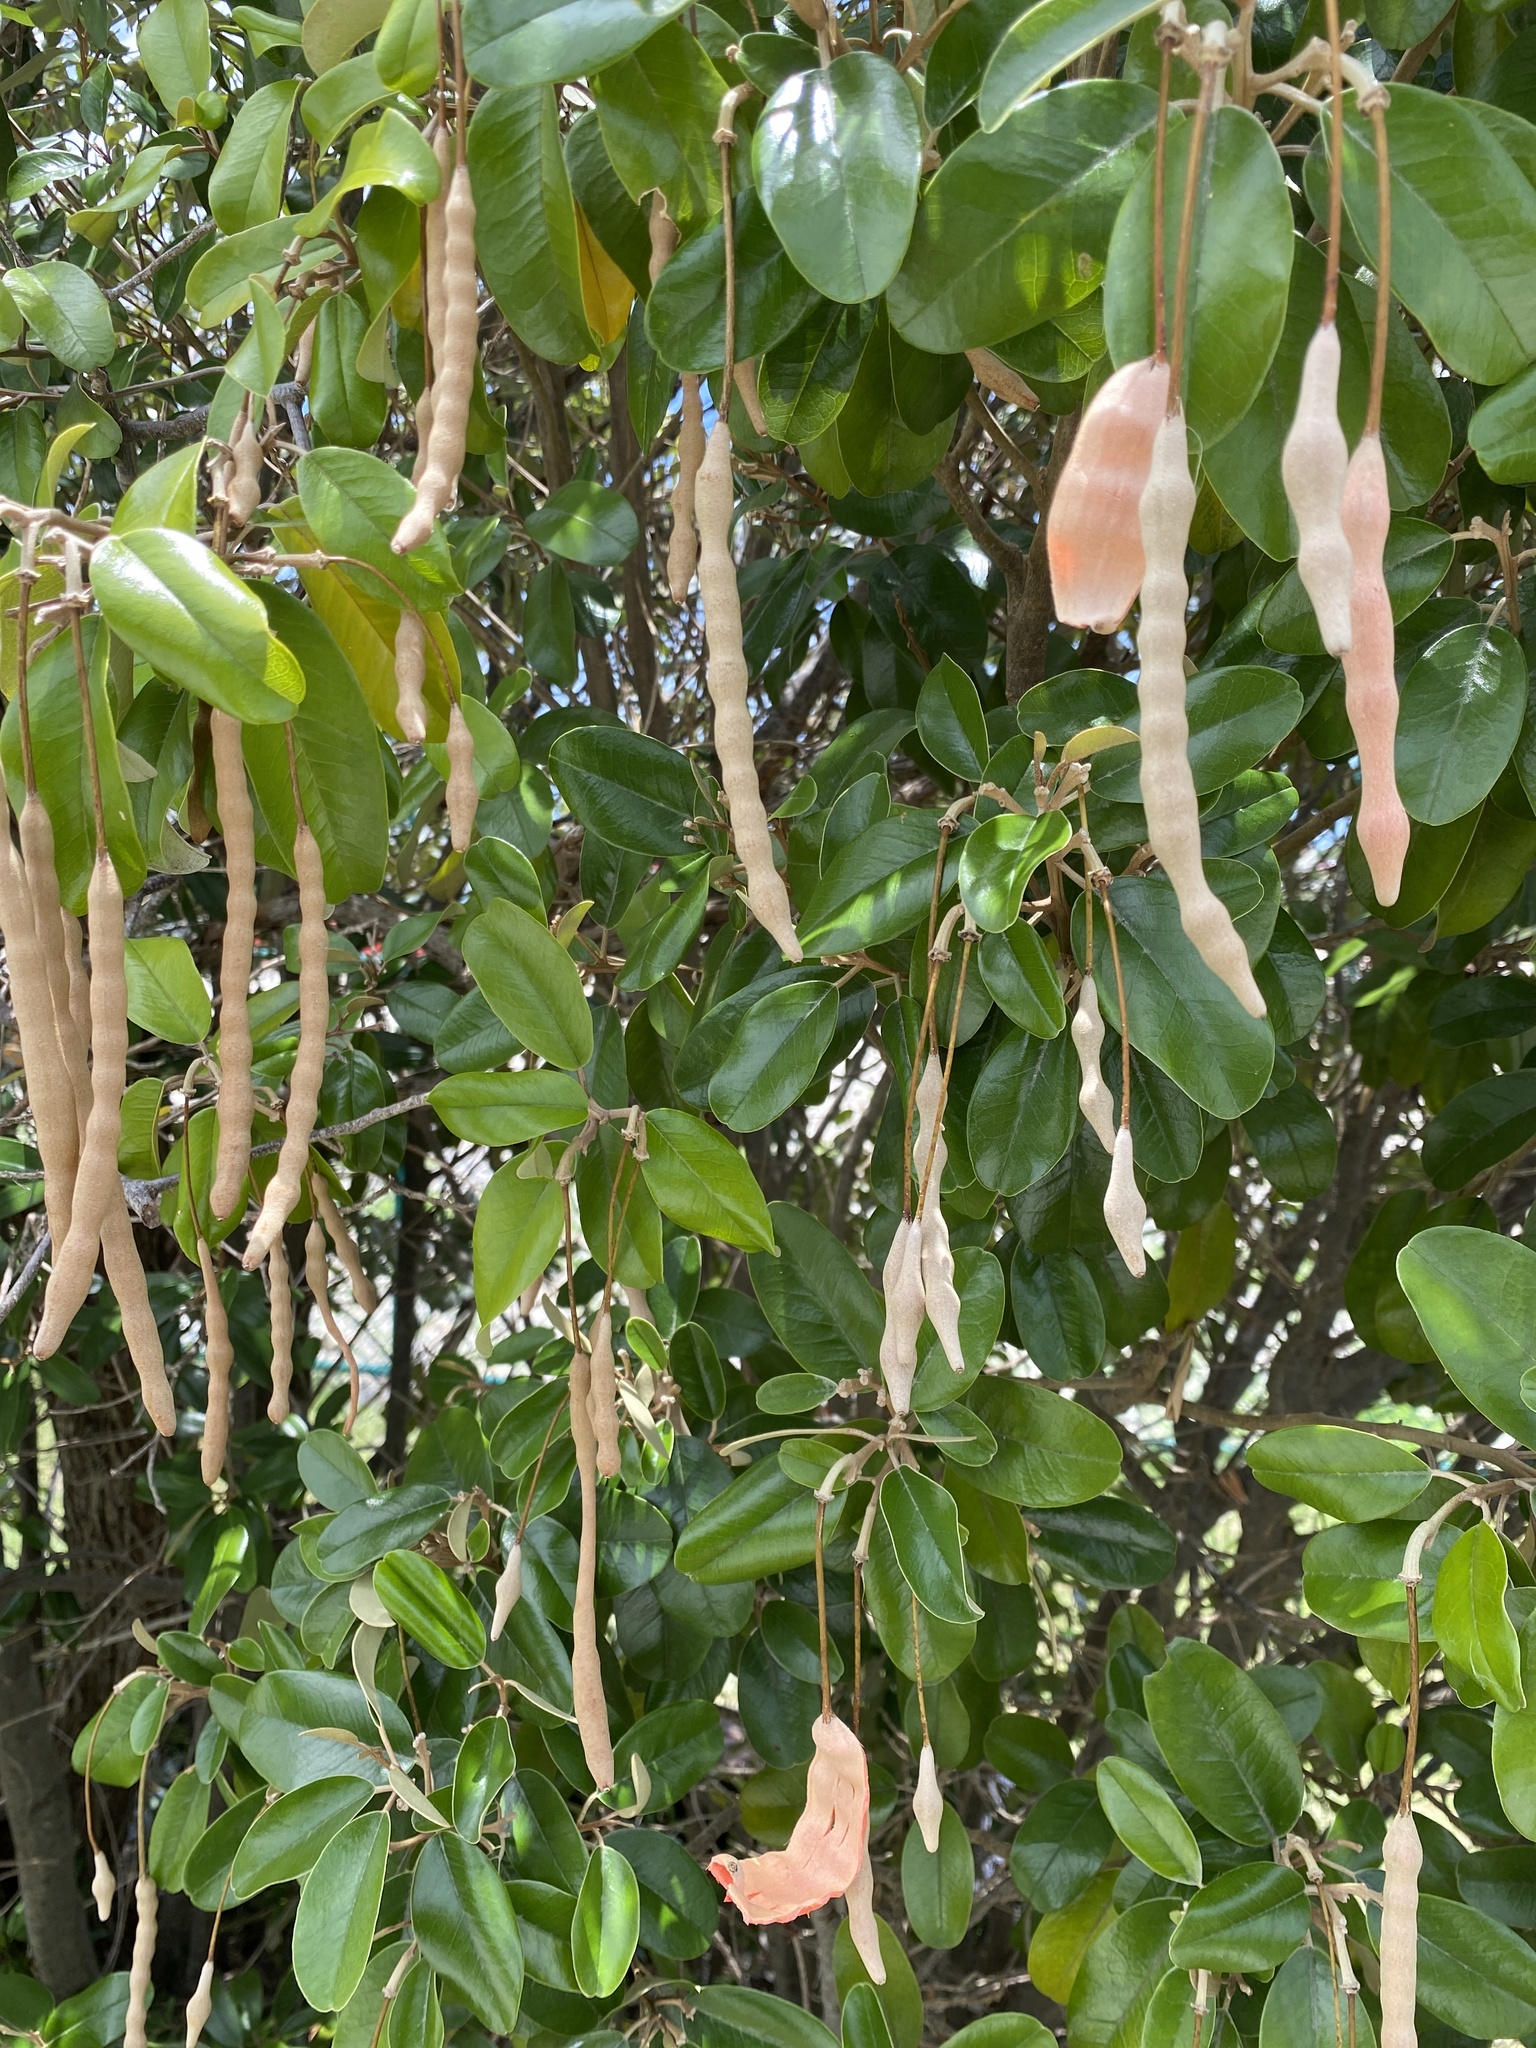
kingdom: Plantae
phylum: Tracheophyta
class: Magnoliopsida
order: Brassicales
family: Capparaceae
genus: Quadrella
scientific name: Quadrella cynophallophora
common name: Black willow
